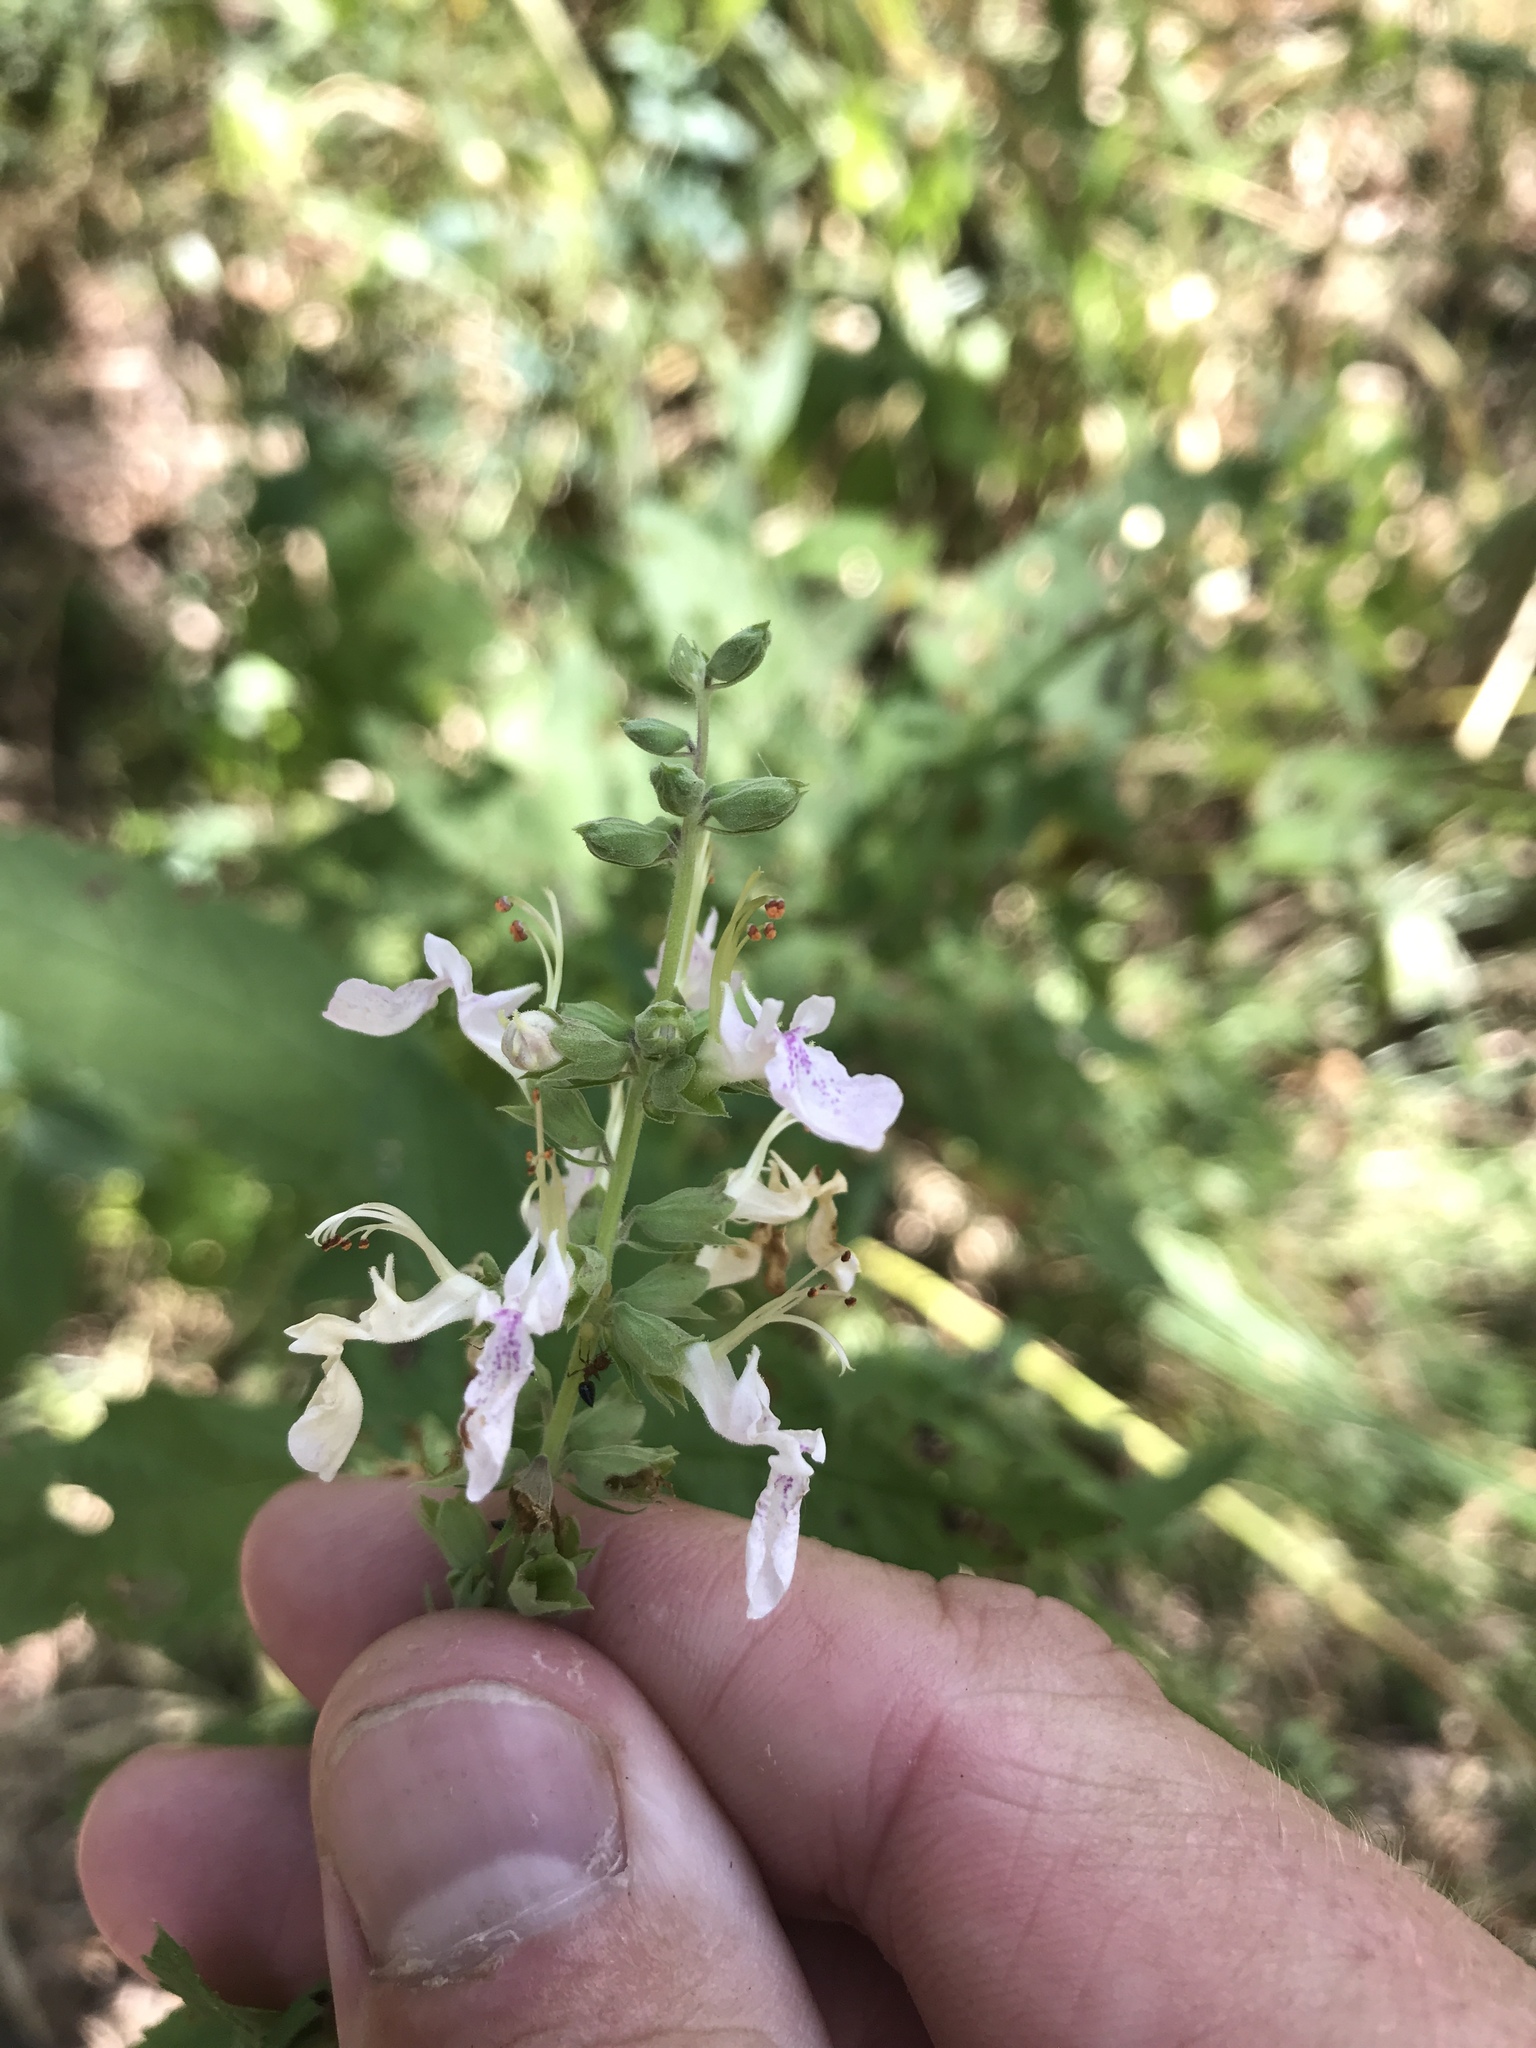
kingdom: Plantae
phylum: Tracheophyta
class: Magnoliopsida
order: Lamiales
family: Lamiaceae
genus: Teucrium
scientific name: Teucrium canadense
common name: American germander
